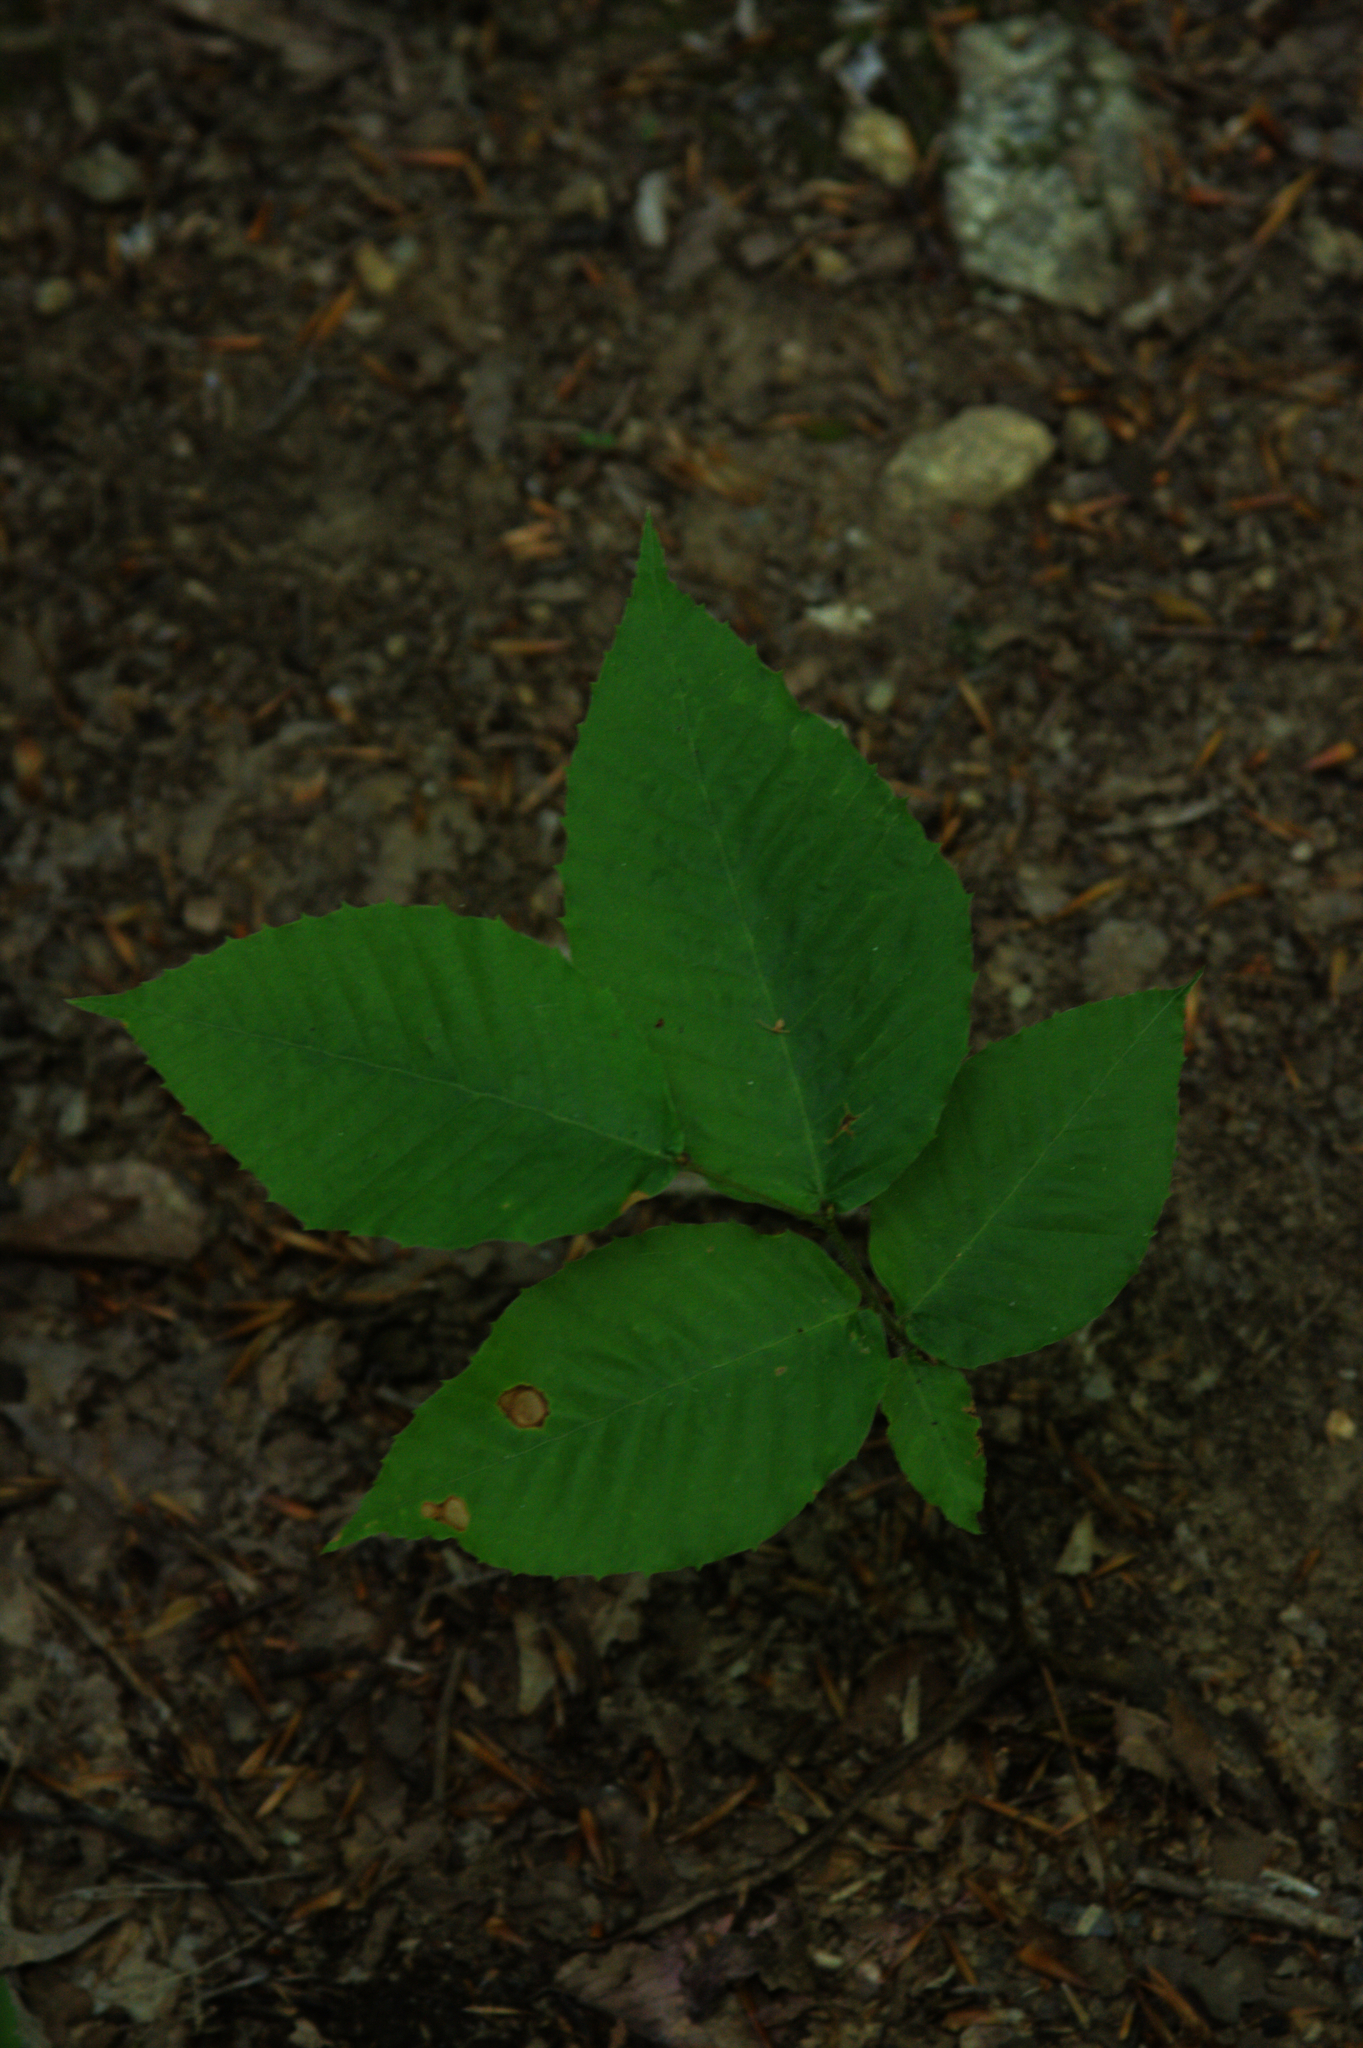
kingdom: Plantae
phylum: Tracheophyta
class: Magnoliopsida
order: Fagales
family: Fagaceae
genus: Fagus
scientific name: Fagus grandifolia
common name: American beech
